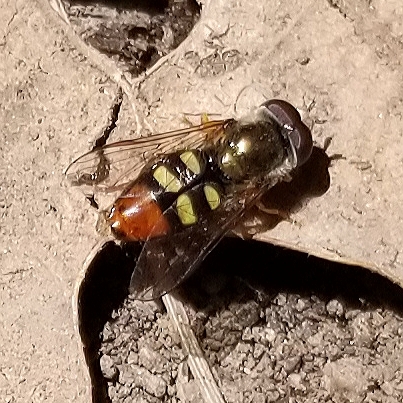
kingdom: Animalia
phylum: Arthropoda
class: Insecta
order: Diptera
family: Syrphidae
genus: Eupeodes
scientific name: Eupeodes snowi
